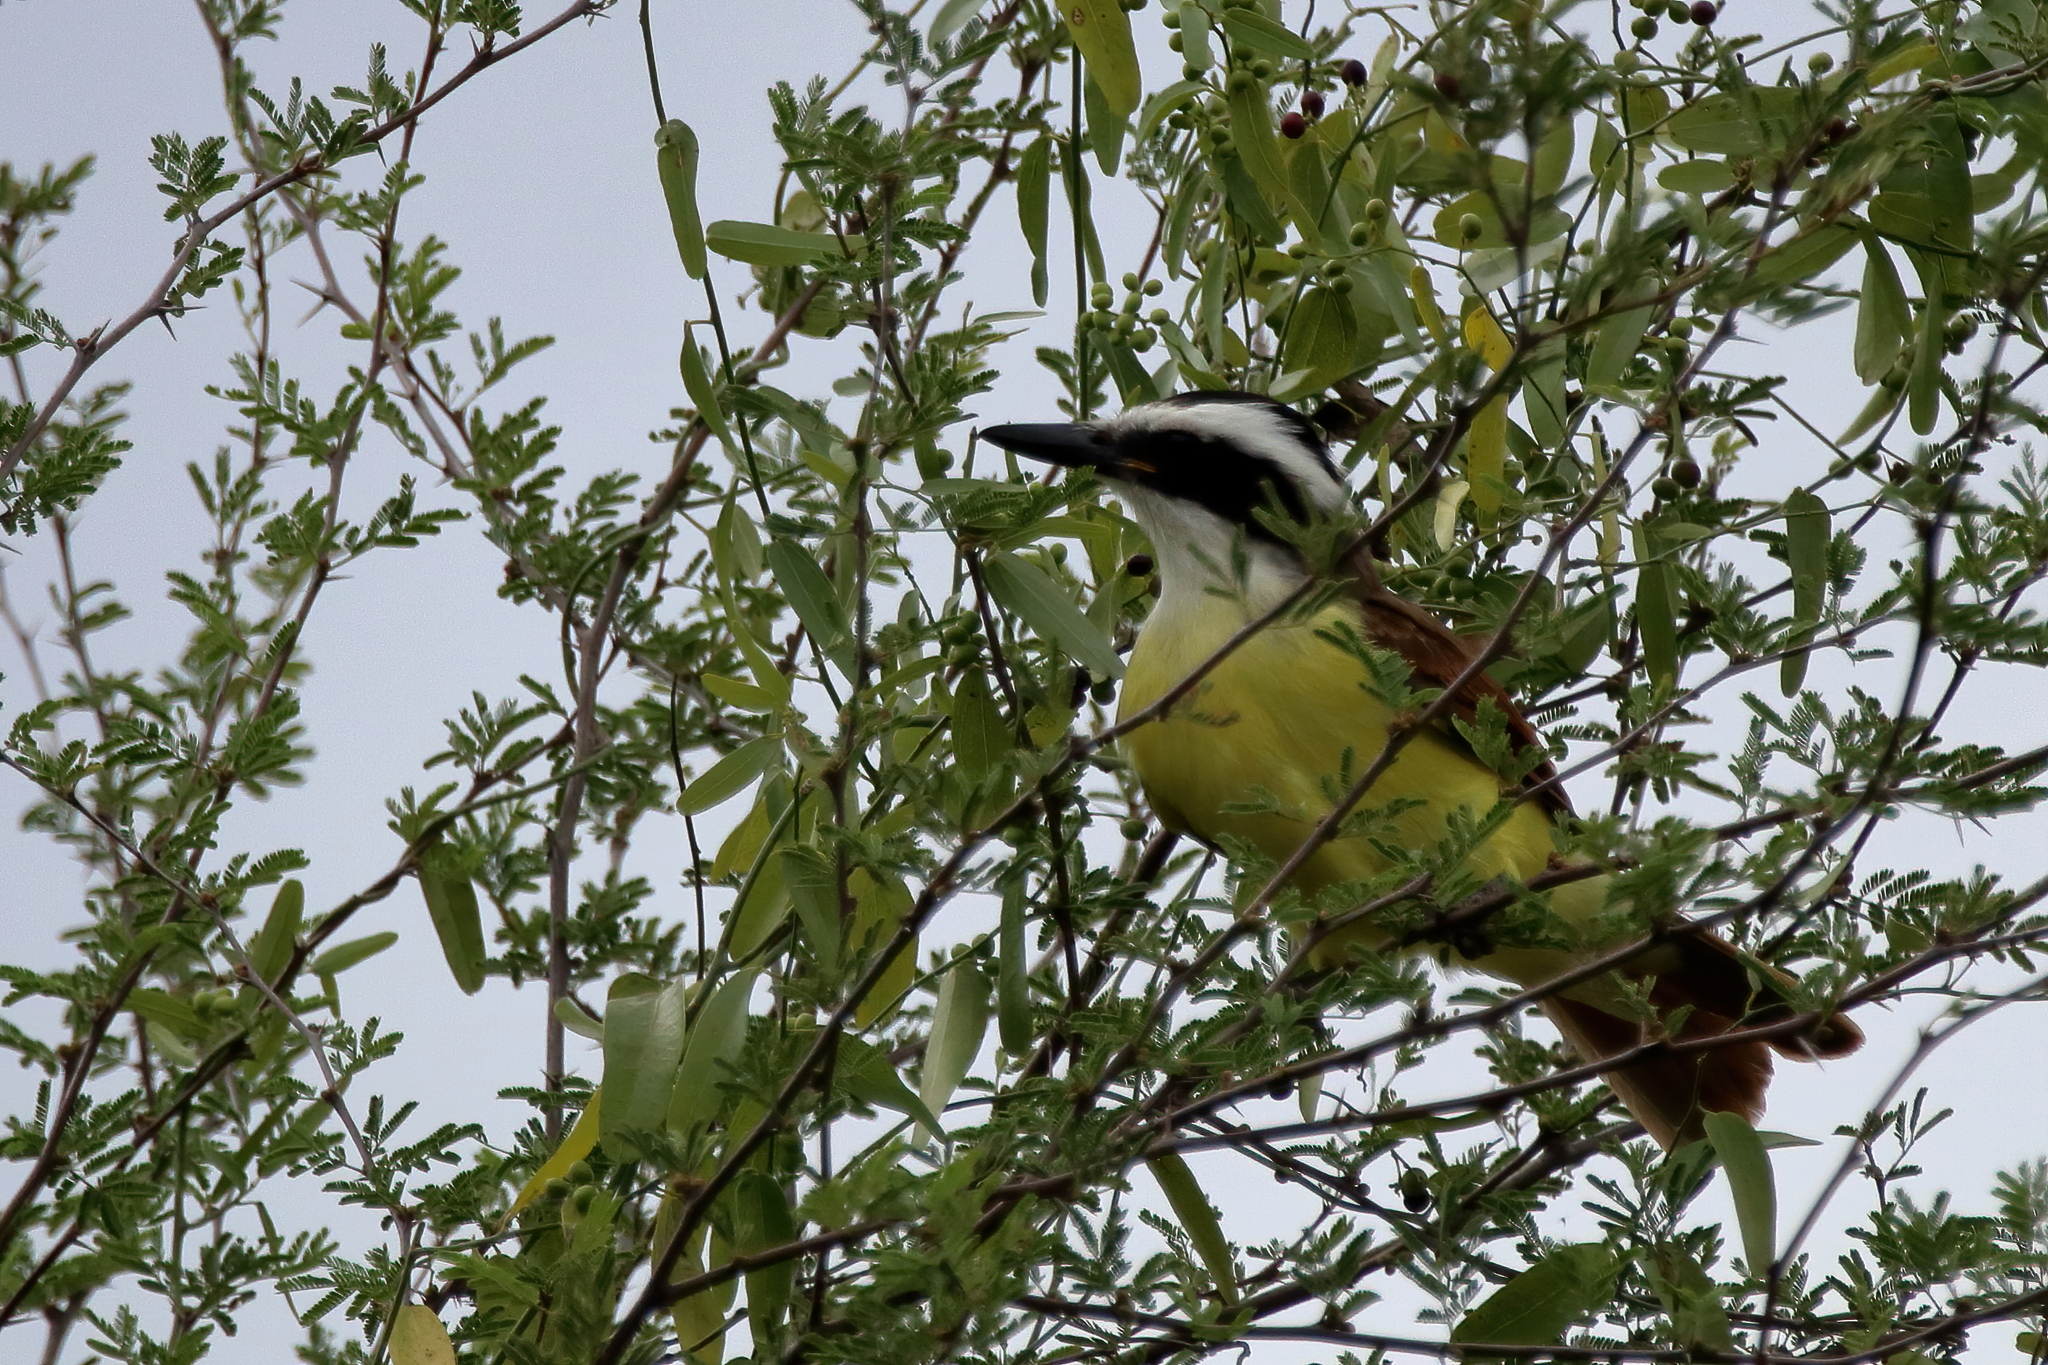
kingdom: Animalia
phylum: Chordata
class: Aves
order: Passeriformes
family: Tyrannidae
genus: Pitangus
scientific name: Pitangus sulphuratus
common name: Great kiskadee
